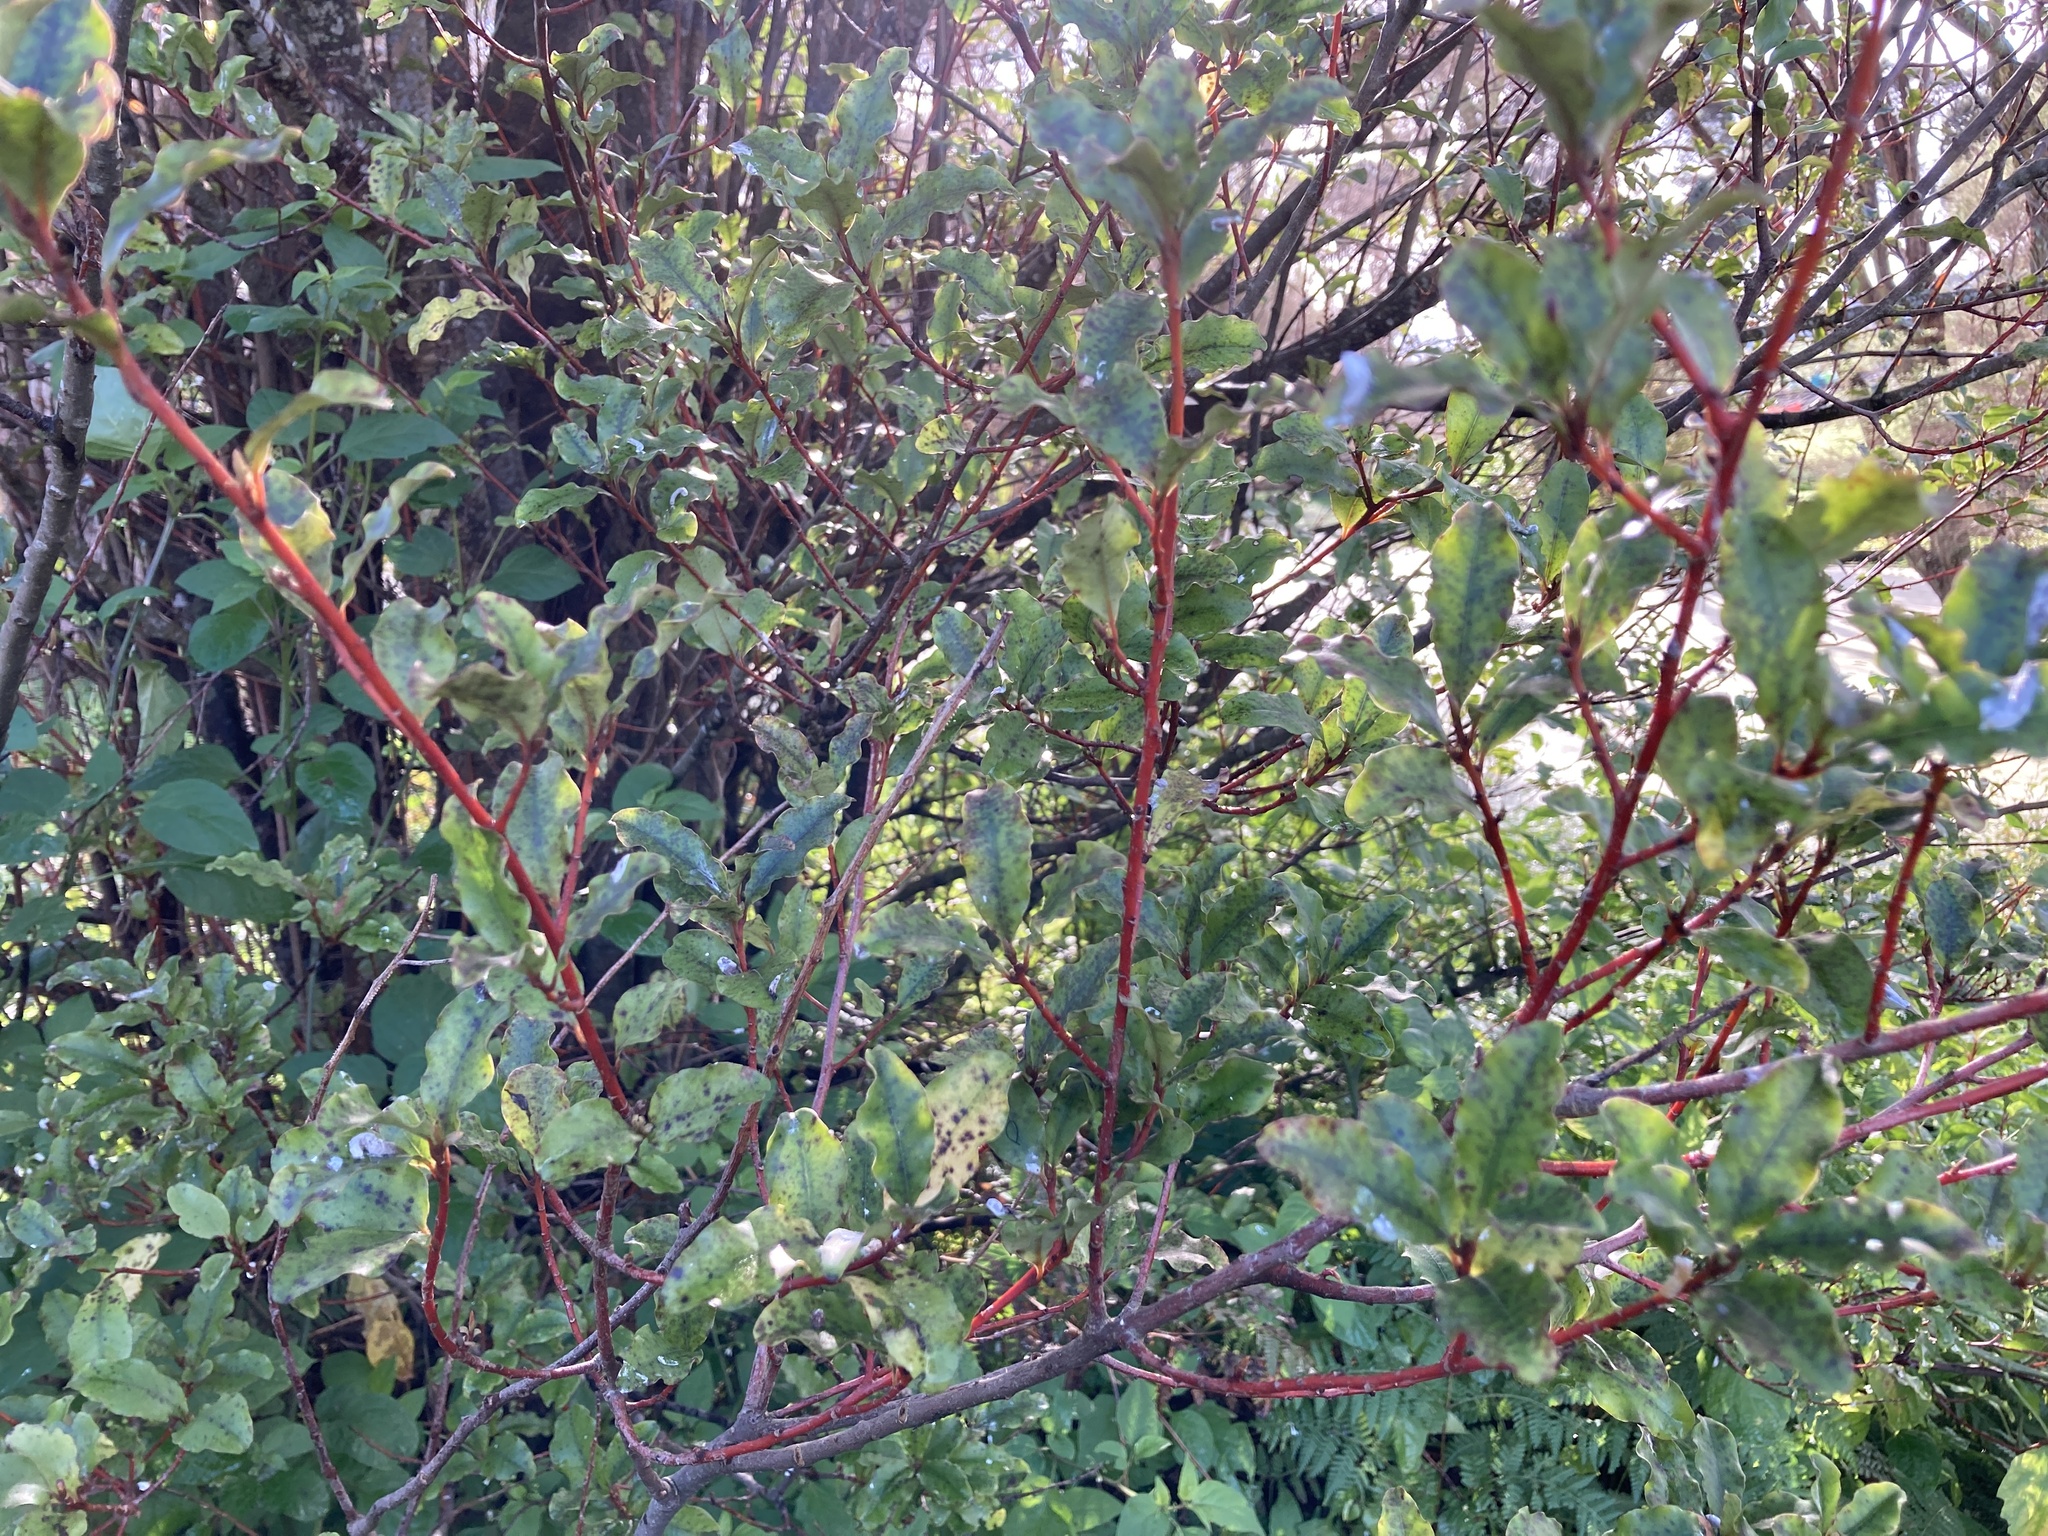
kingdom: Plantae
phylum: Tracheophyta
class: Magnoliopsida
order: Ericales
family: Primulaceae
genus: Myrsine
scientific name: Myrsine australis
